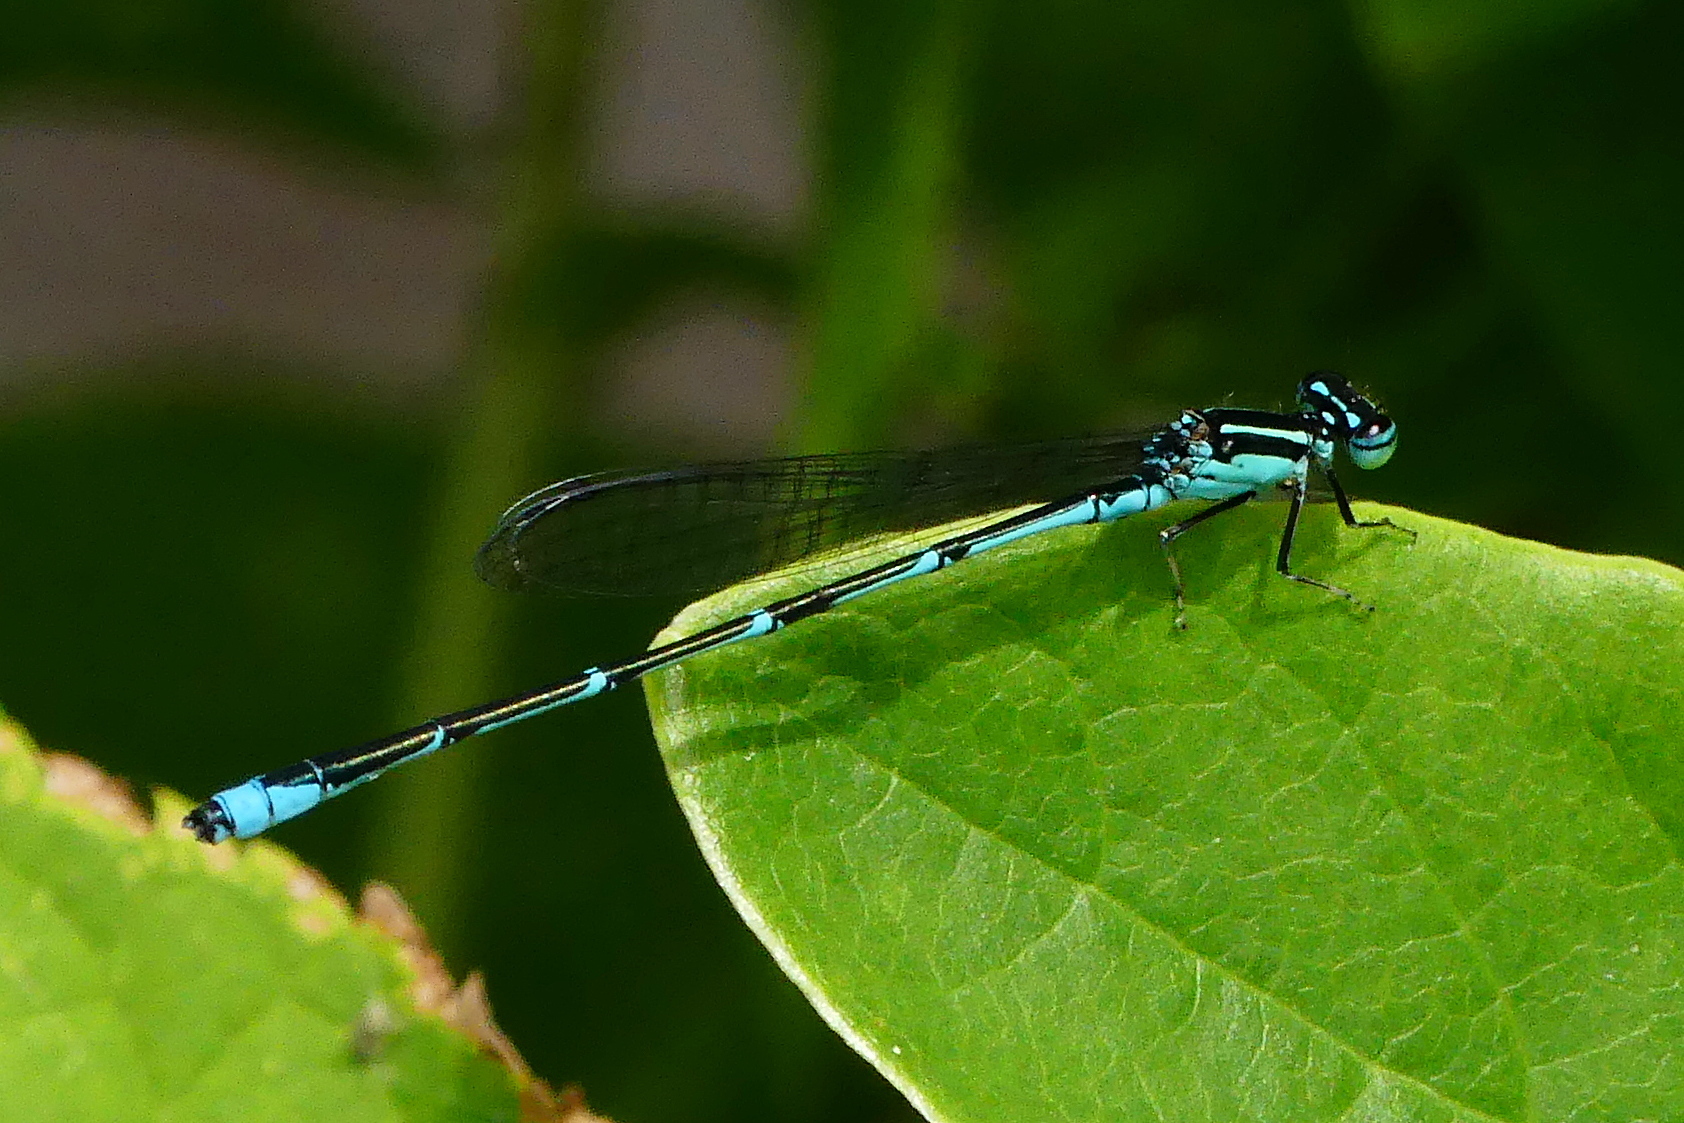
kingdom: Animalia
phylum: Arthropoda
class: Insecta
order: Odonata
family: Coenagrionidae
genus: Enallagma
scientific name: Enallagma exsulans
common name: Stream bluet
